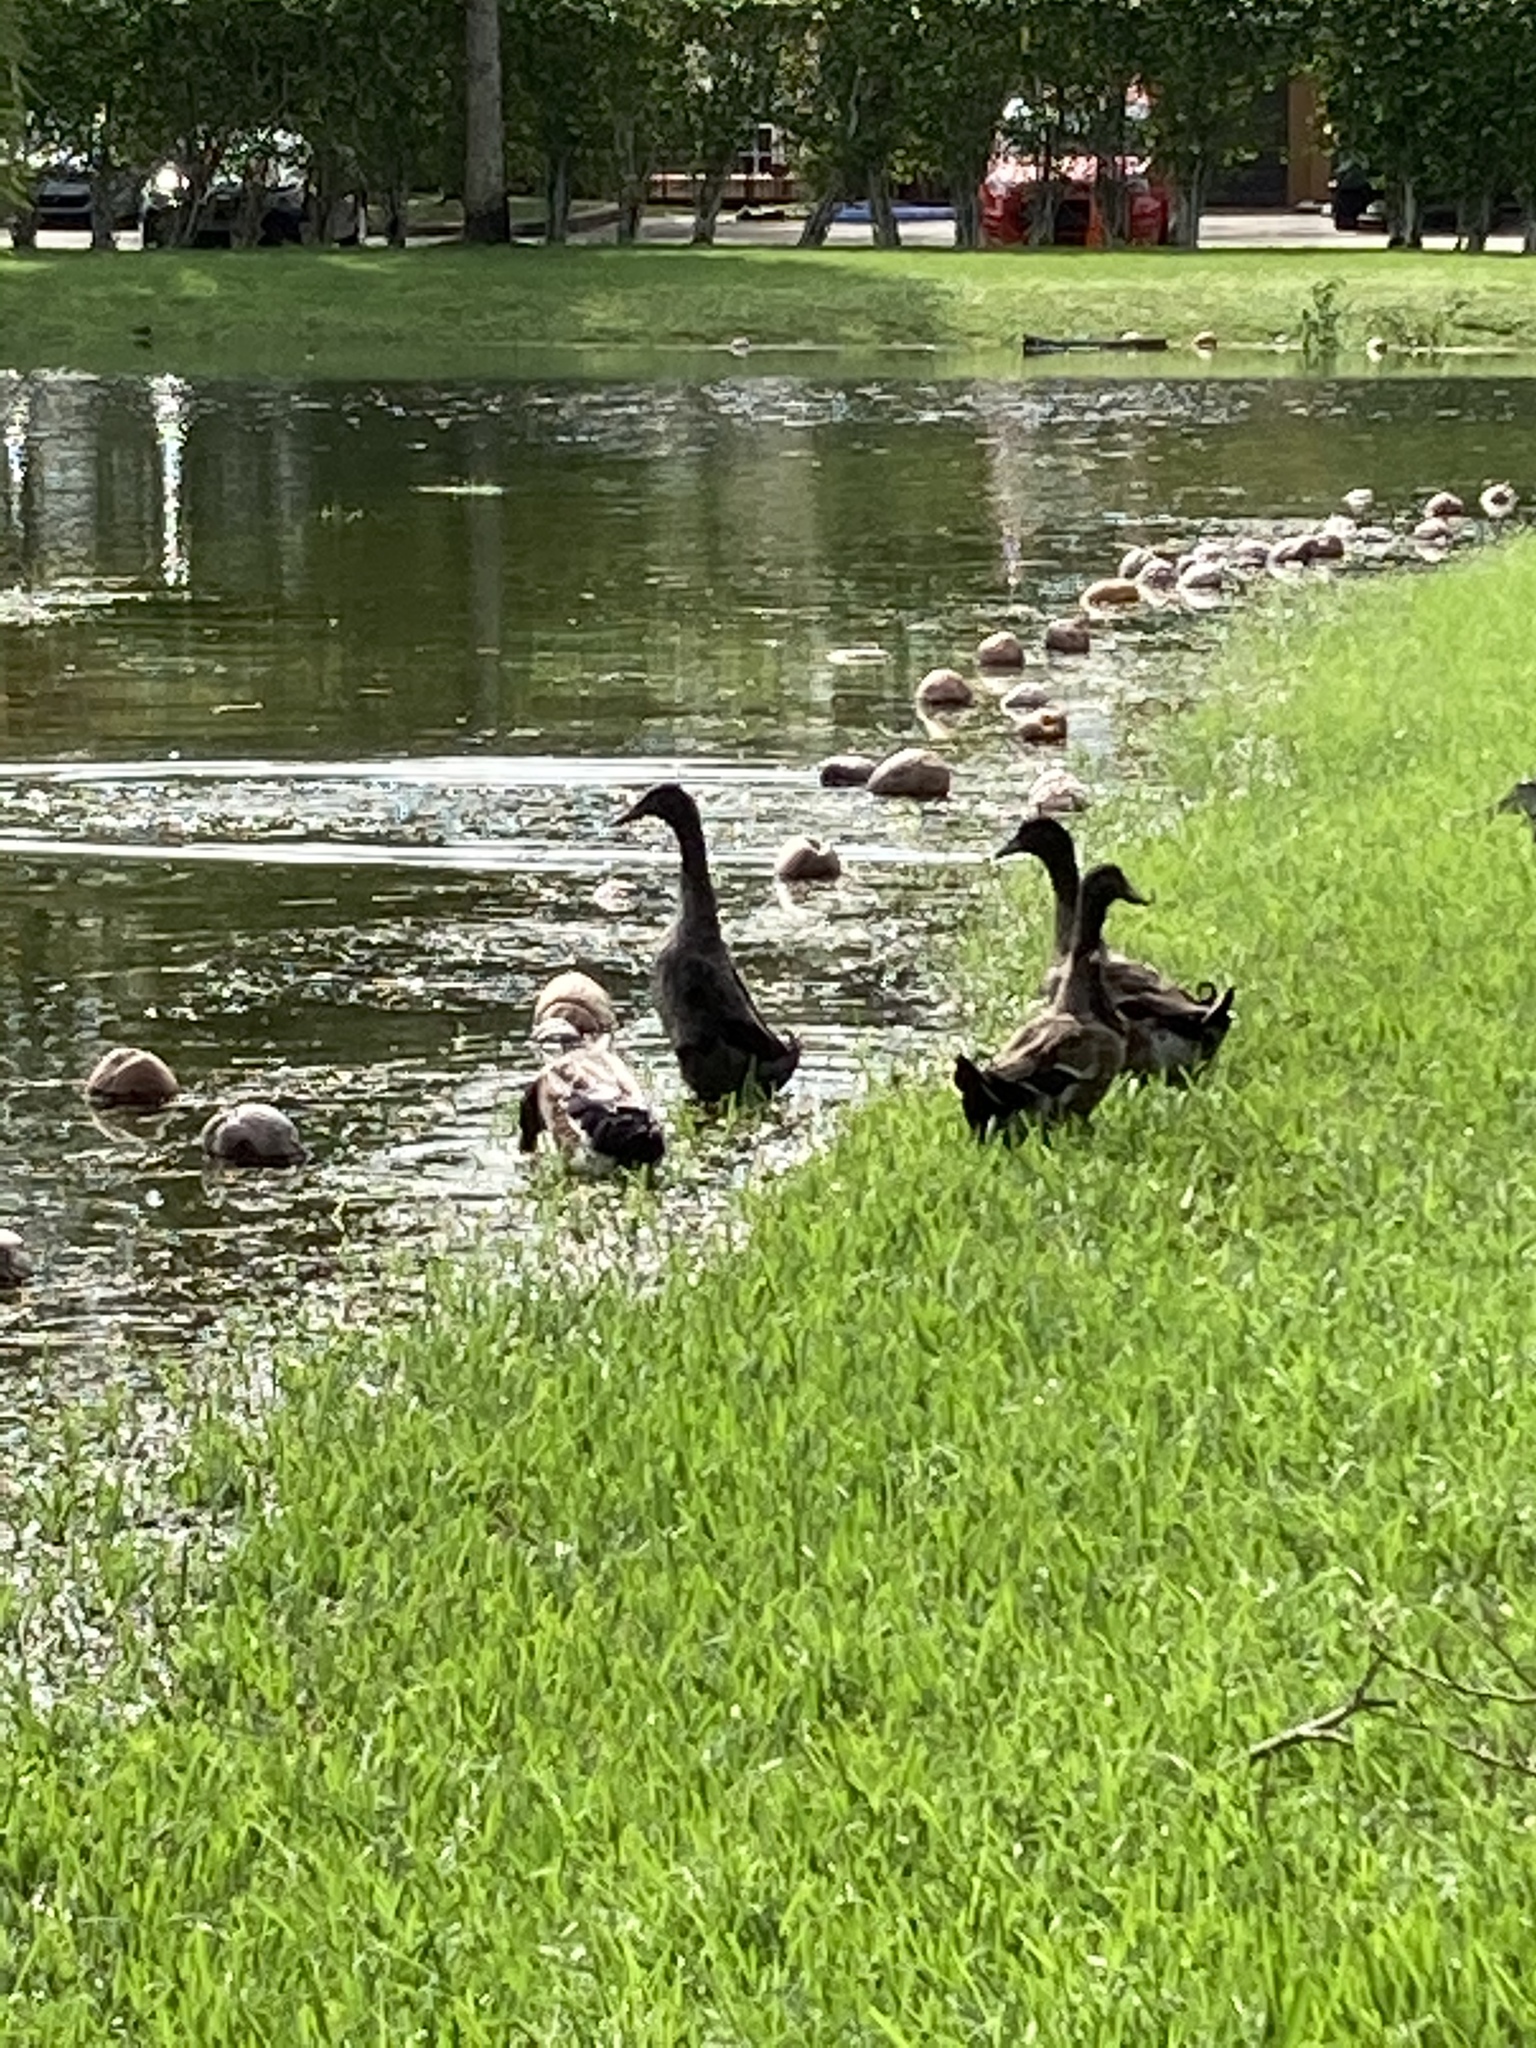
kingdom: Animalia
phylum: Chordata
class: Aves
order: Anseriformes
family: Anatidae
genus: Anas
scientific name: Anas platyrhynchos
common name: Mallard
